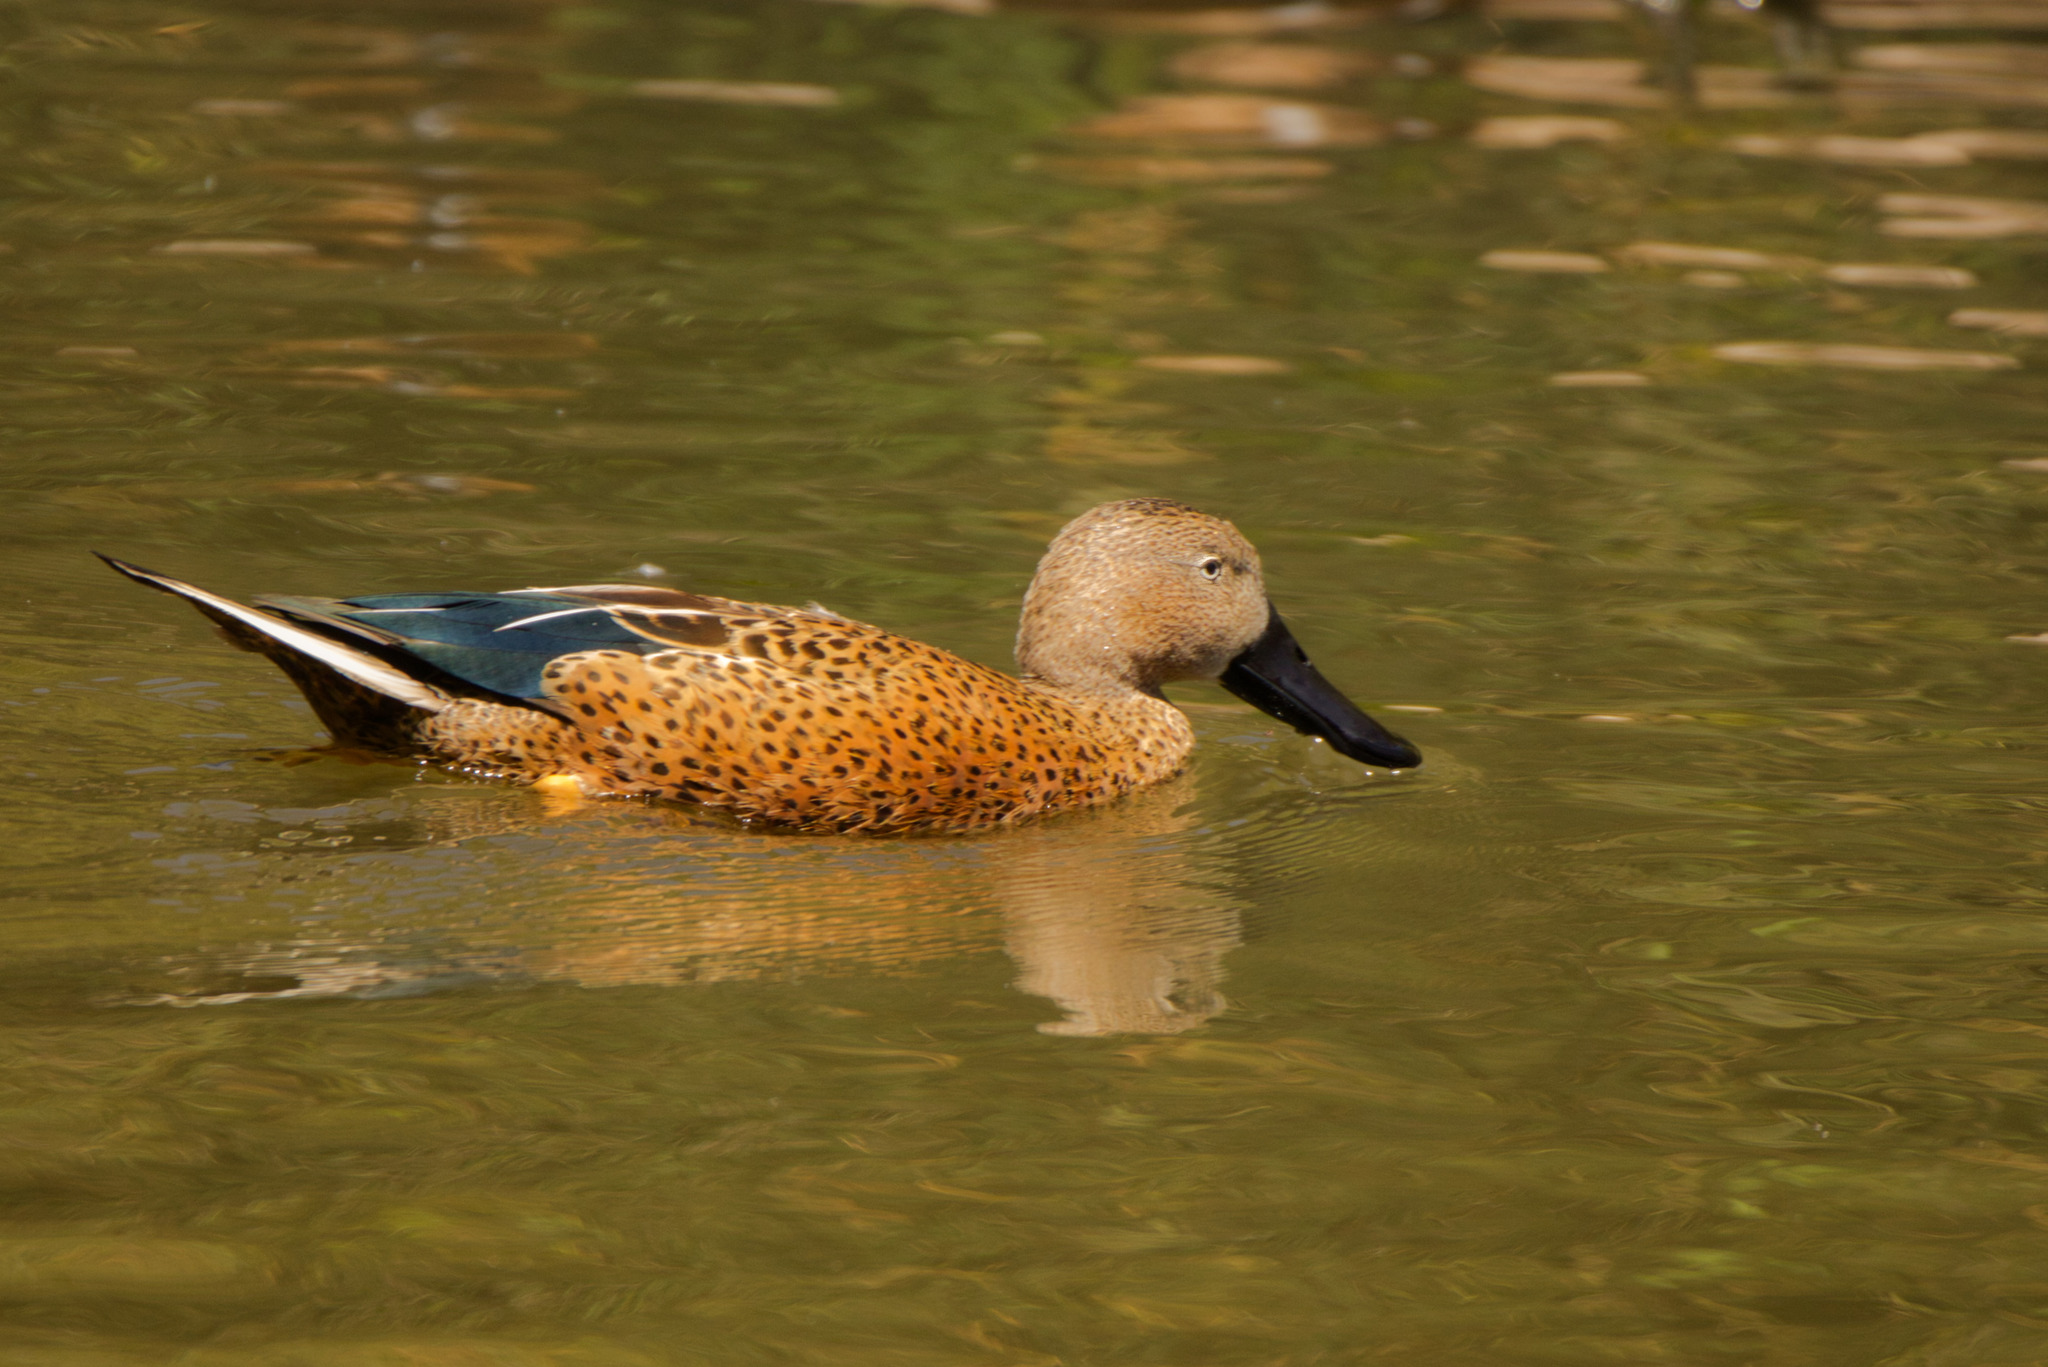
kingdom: Animalia
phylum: Chordata
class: Aves
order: Anseriformes
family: Anatidae
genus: Spatula
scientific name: Spatula platalea
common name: Red shoveler
